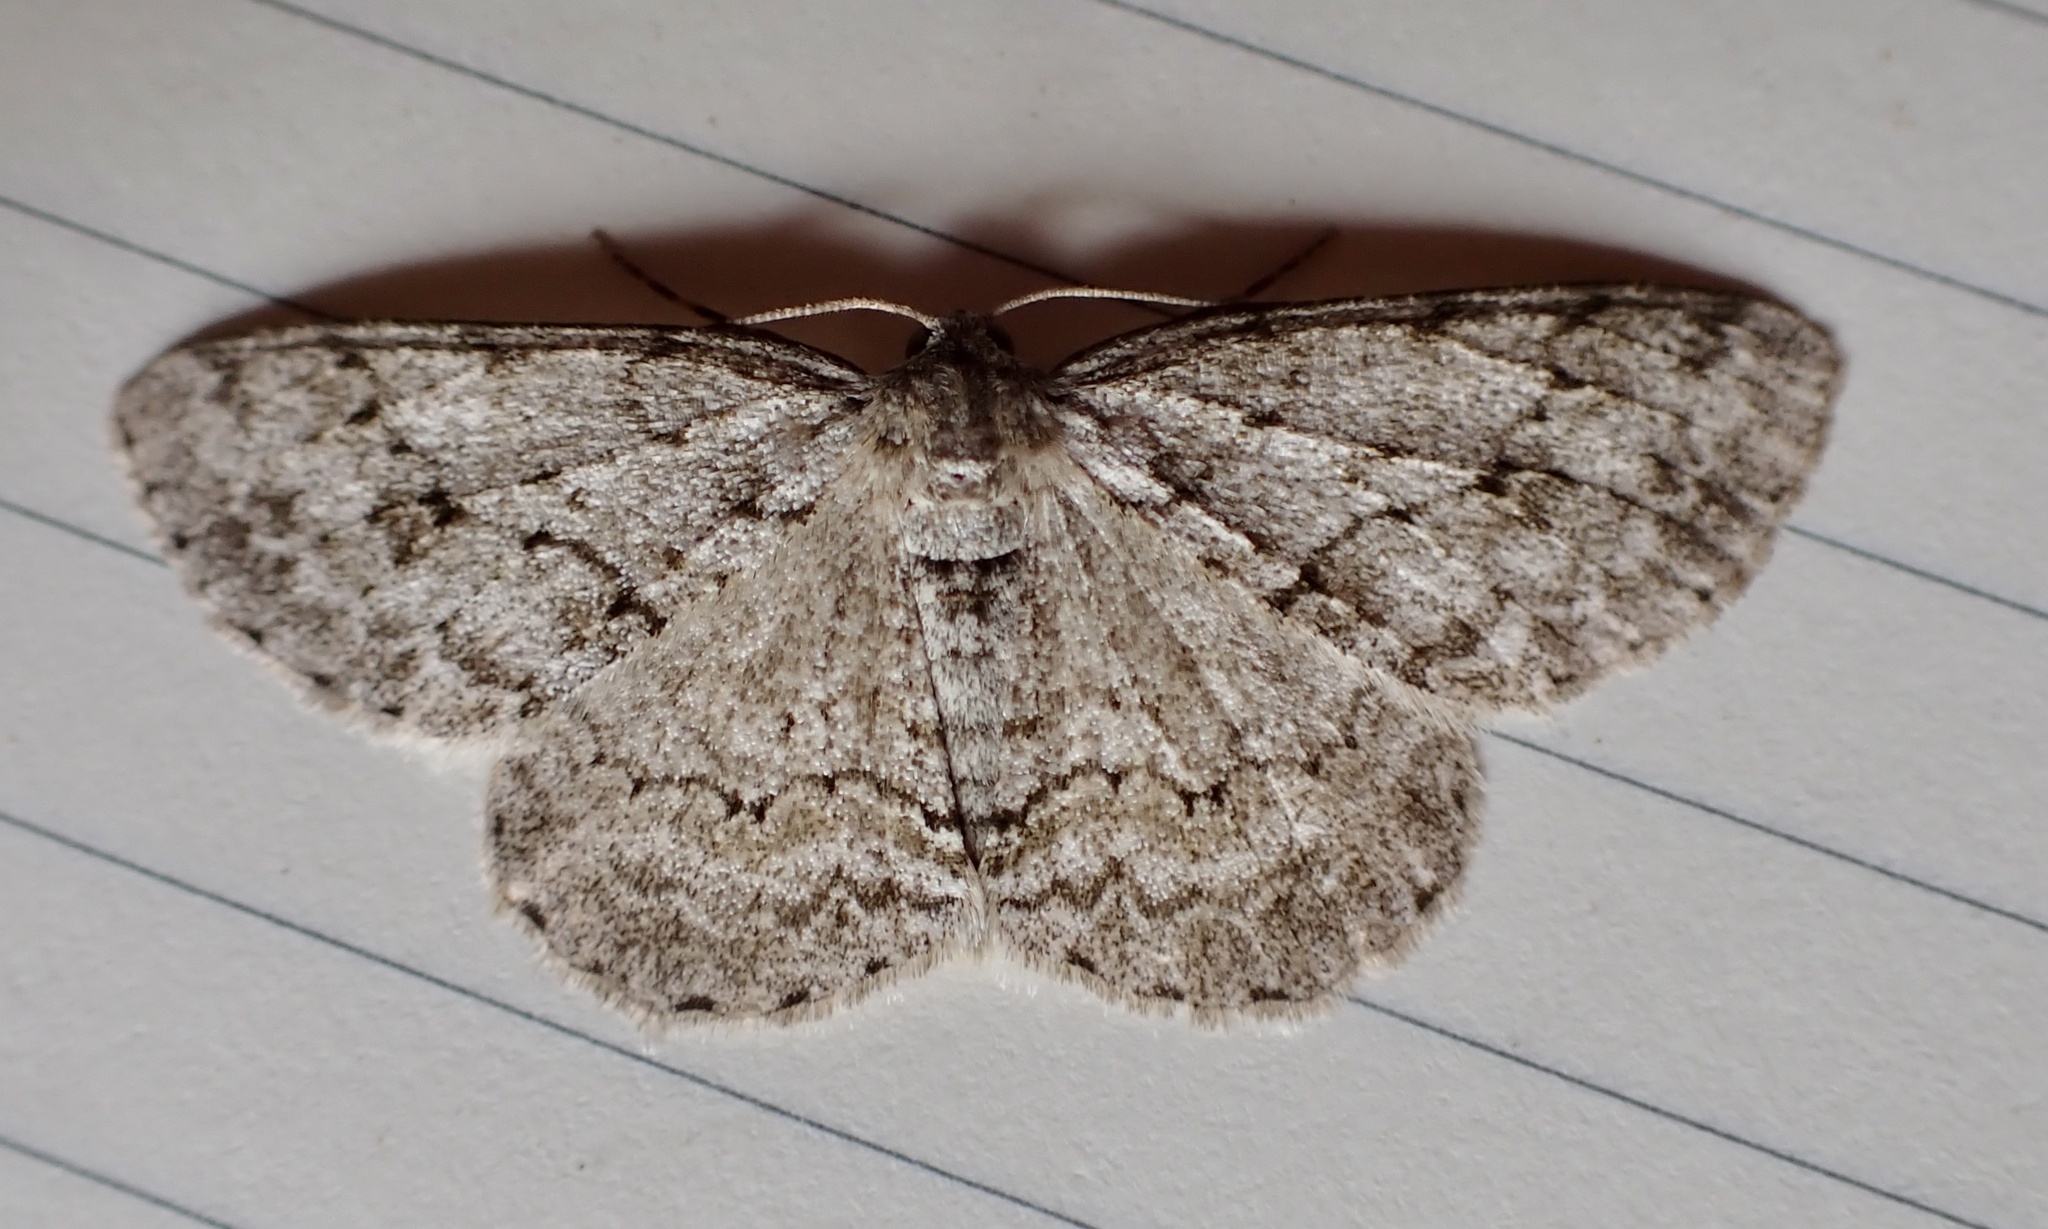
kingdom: Animalia
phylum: Arthropoda
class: Insecta
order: Lepidoptera
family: Geometridae
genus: Ectropis
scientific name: Ectropis crepuscularia
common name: Engrailed
